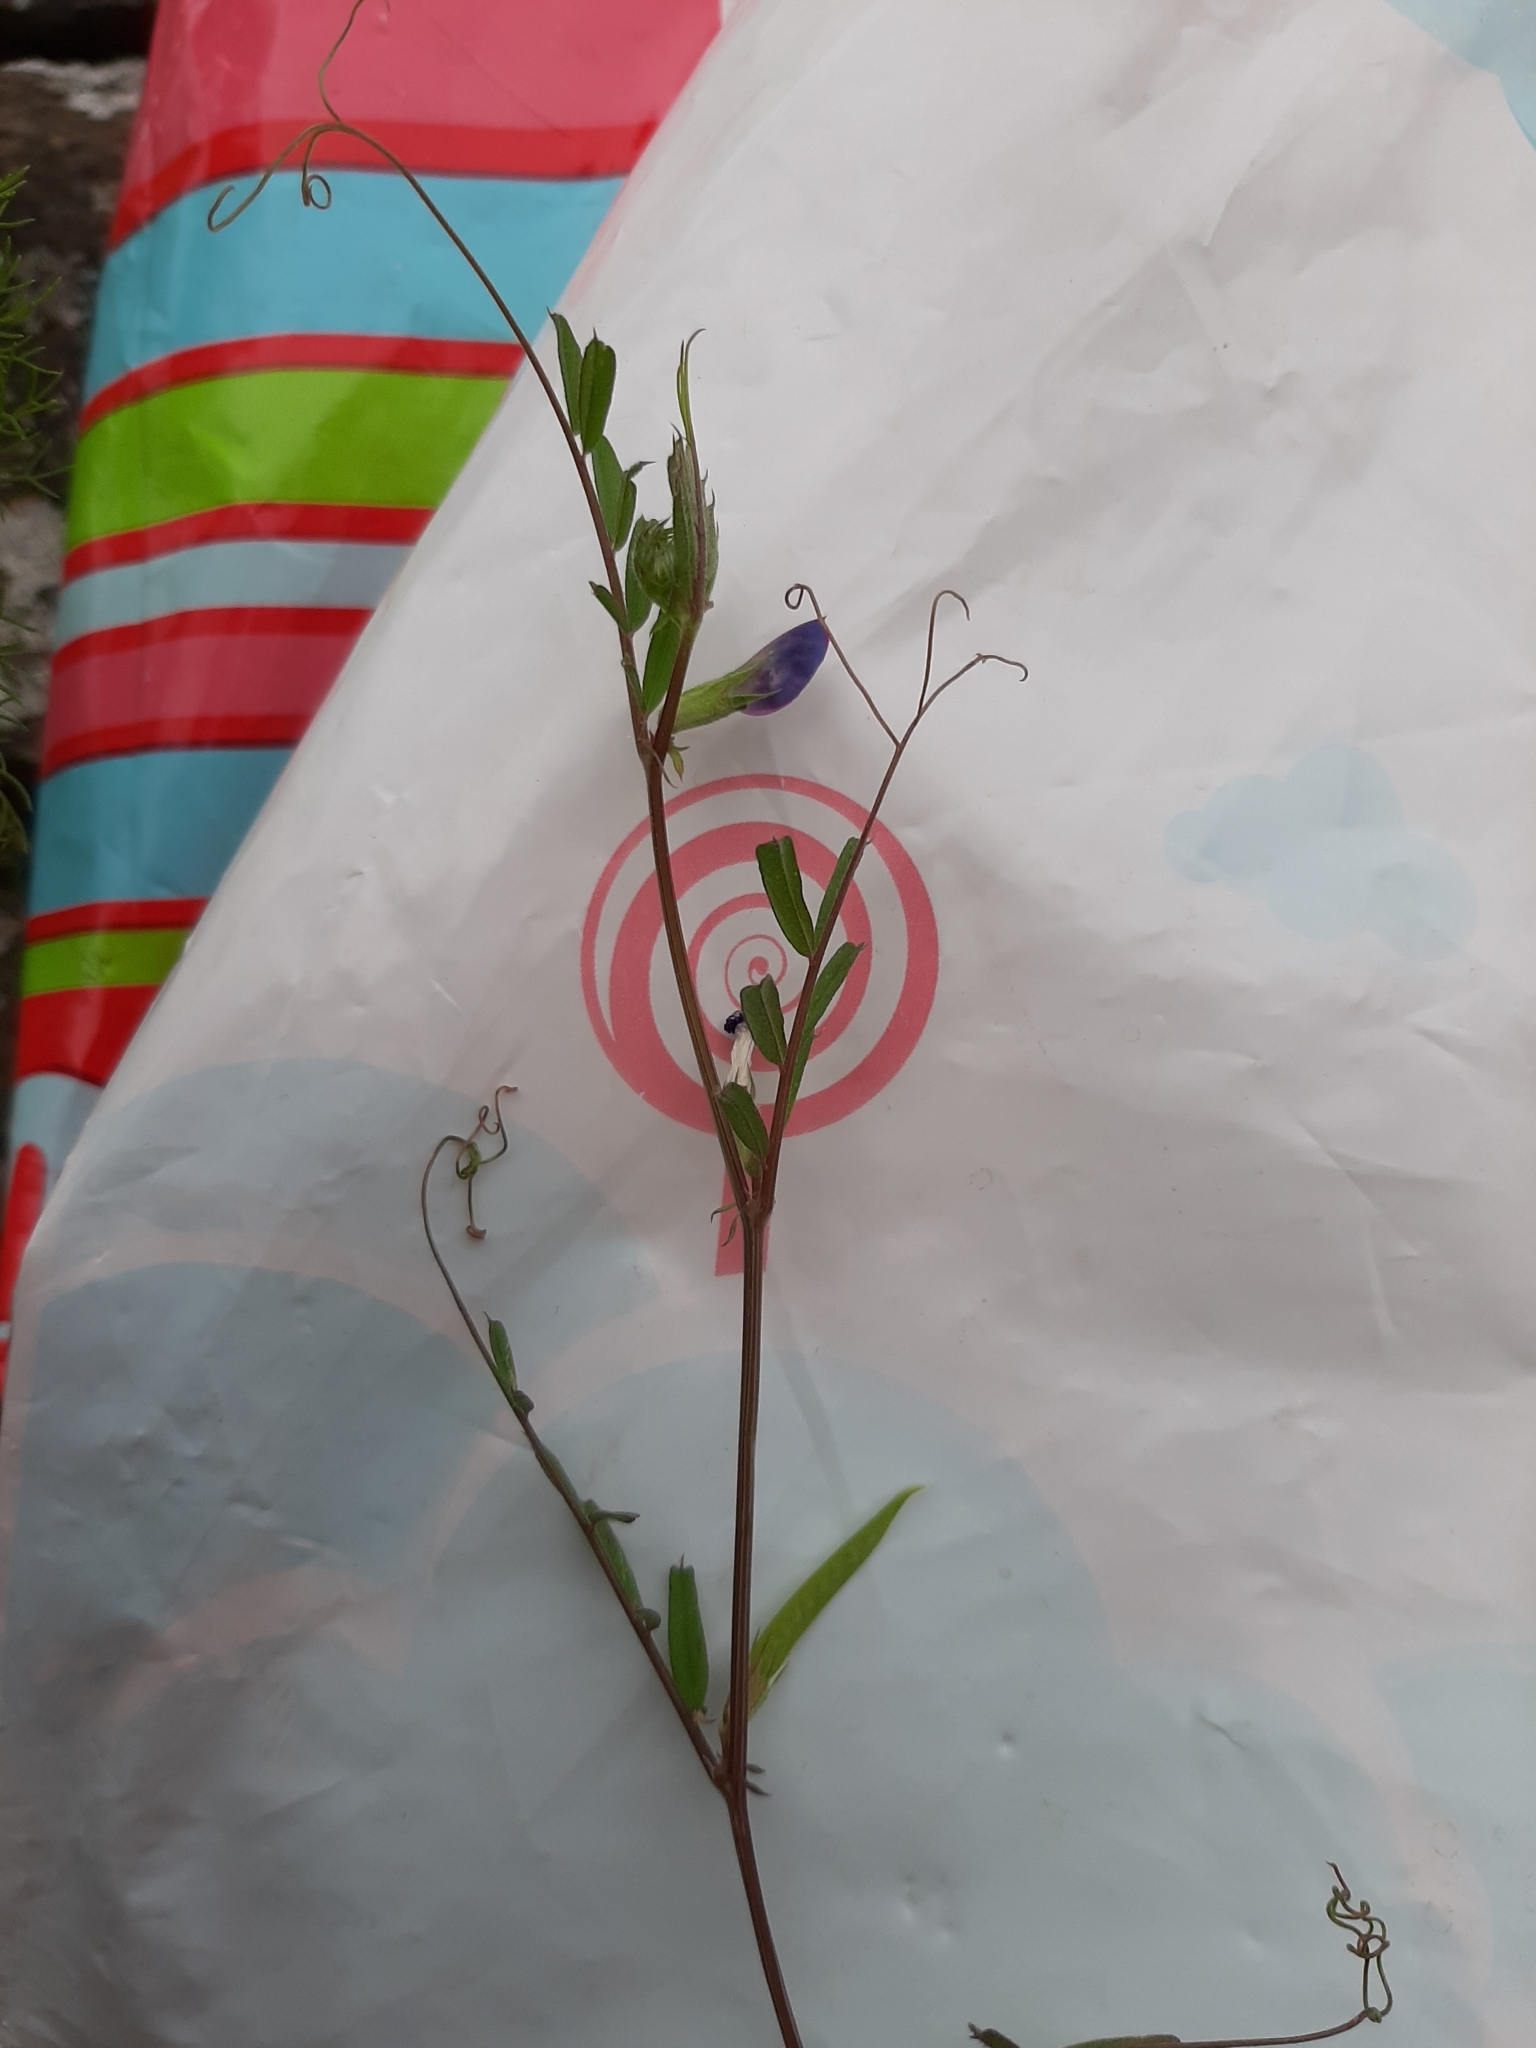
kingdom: Plantae
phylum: Tracheophyta
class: Magnoliopsida
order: Fabales
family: Fabaceae
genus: Vicia
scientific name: Vicia sativa
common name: Garden vetch
